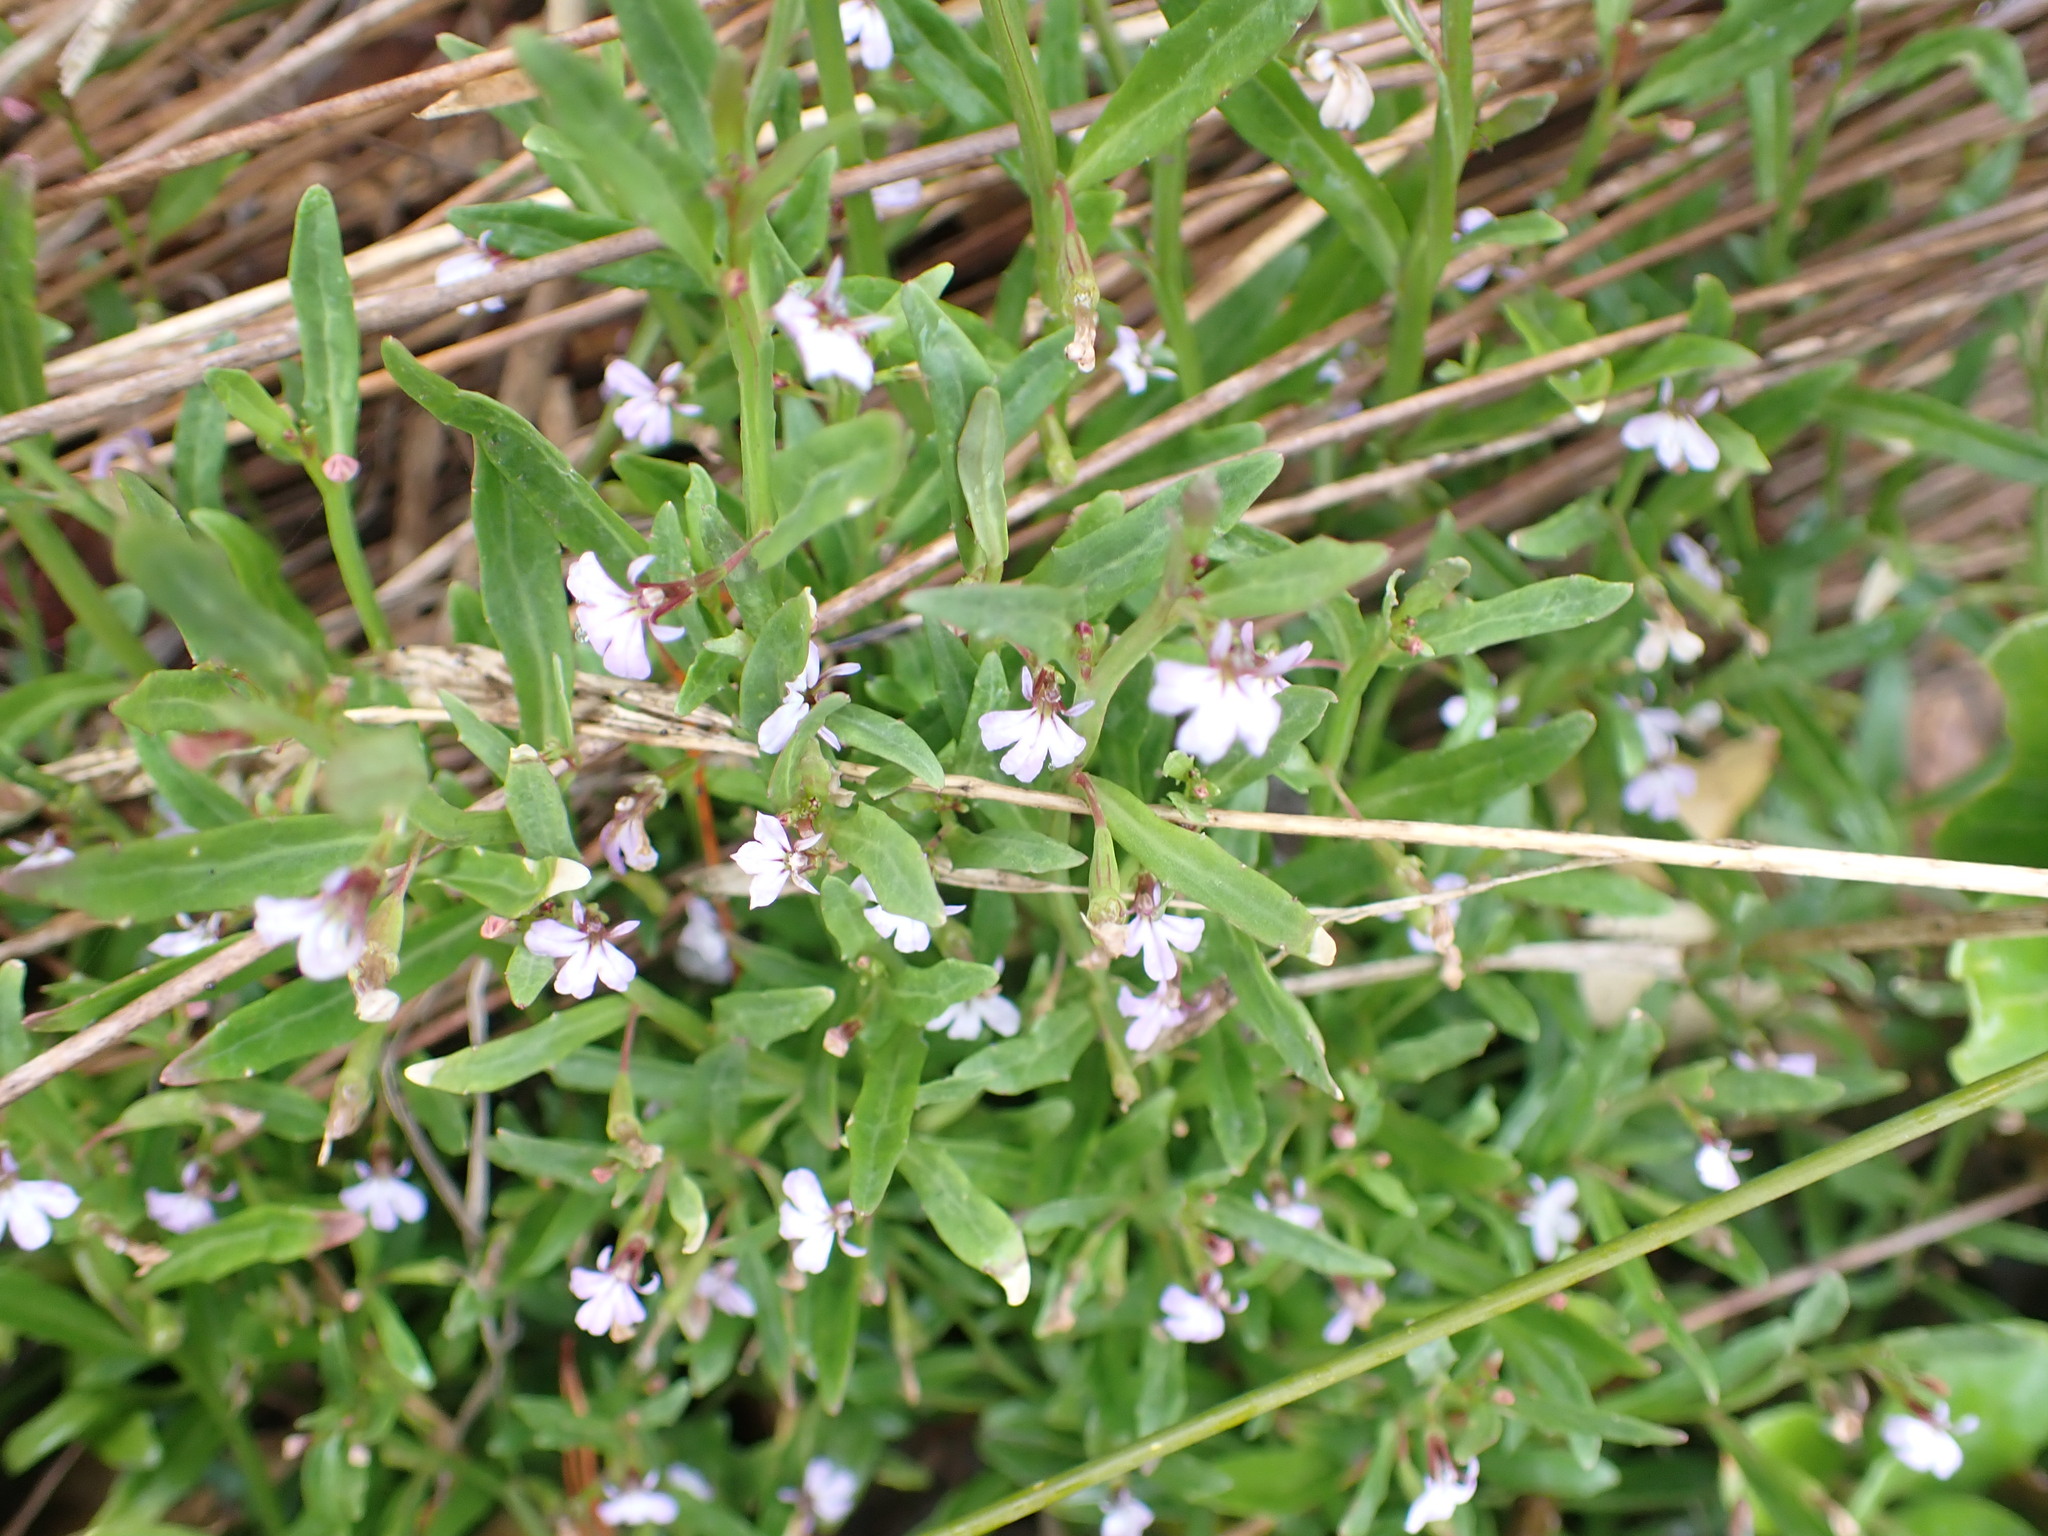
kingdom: Plantae
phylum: Tracheophyta
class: Magnoliopsida
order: Asterales
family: Campanulaceae
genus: Lobelia
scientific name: Lobelia anceps
